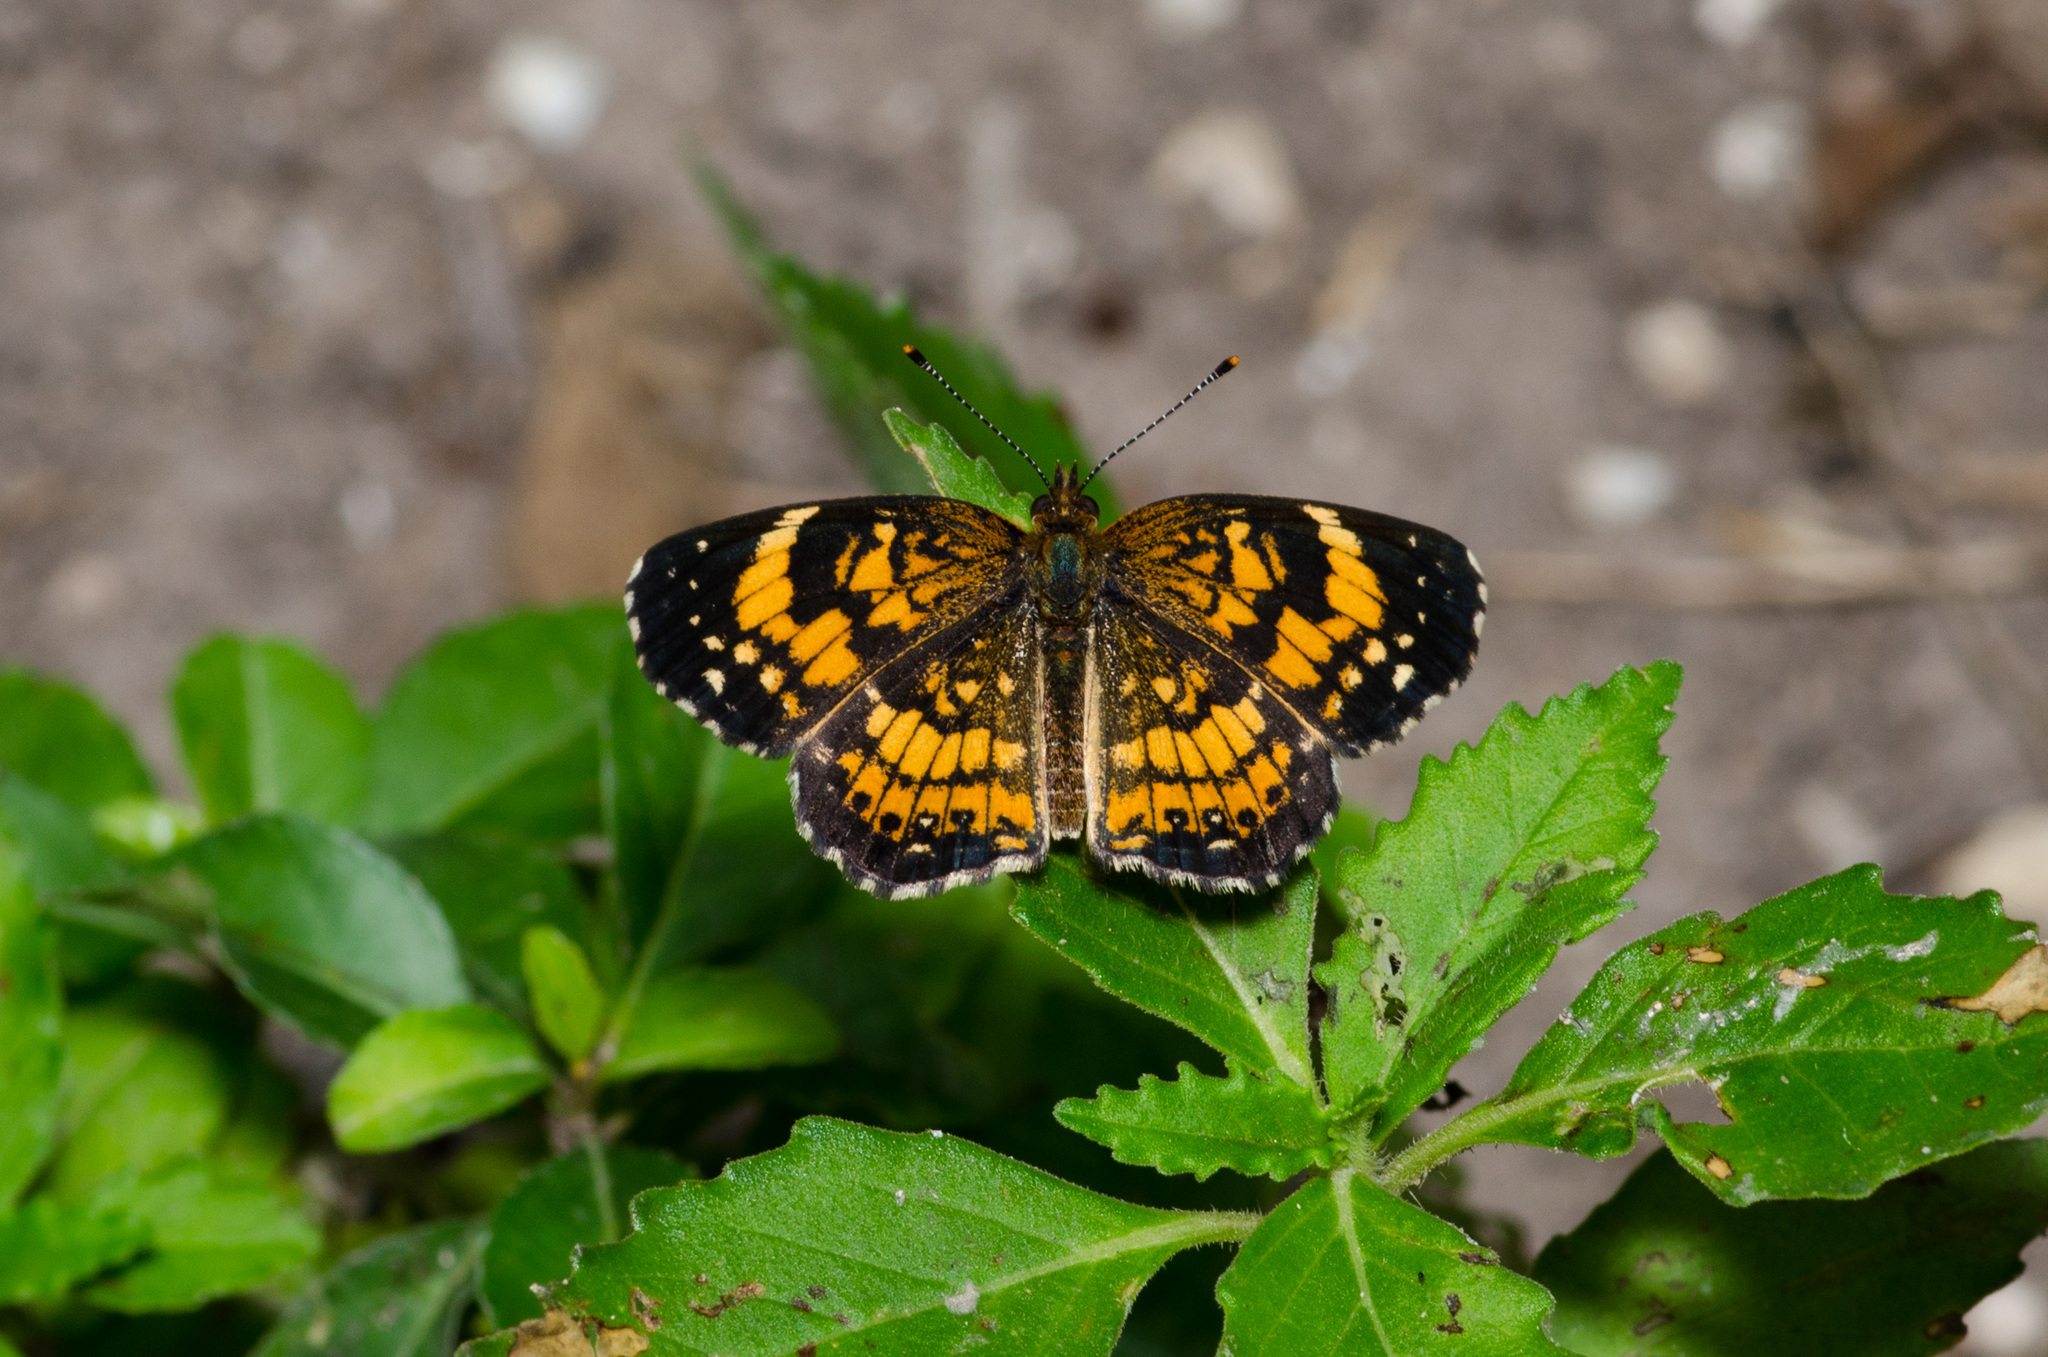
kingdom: Animalia
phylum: Arthropoda
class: Insecta
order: Lepidoptera
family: Nymphalidae
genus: Chlosyne
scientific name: Chlosyne nycteis
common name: Silvery checkerspot
